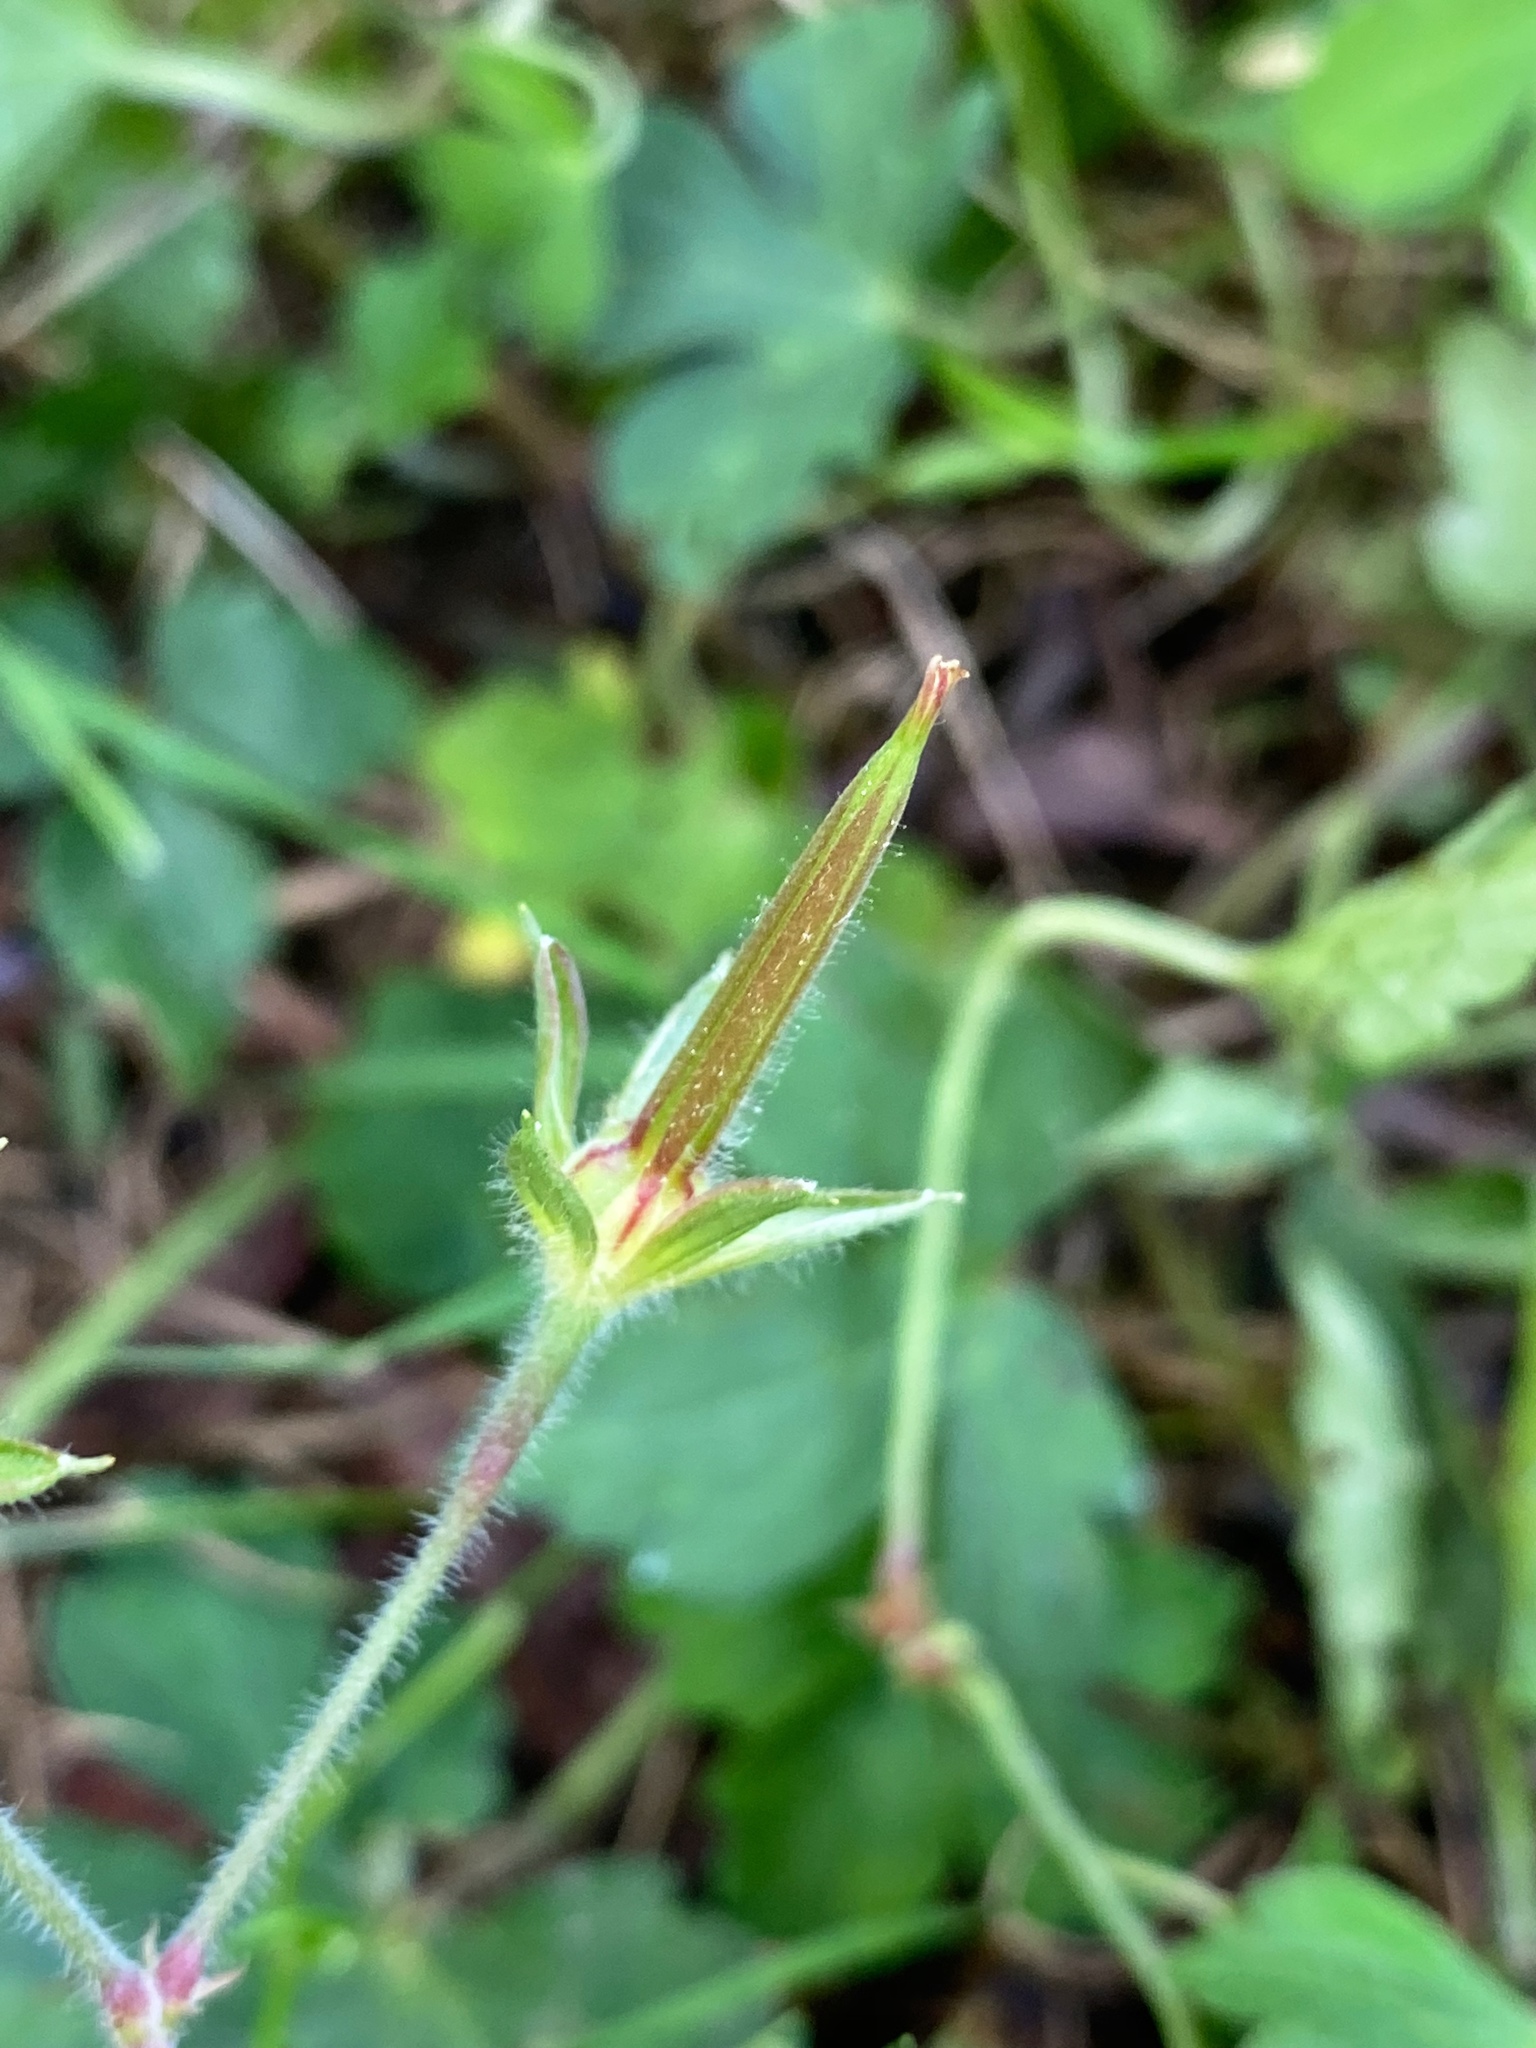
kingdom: Plantae
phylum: Tracheophyta
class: Magnoliopsida
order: Geraniales
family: Geraniaceae
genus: Geranium
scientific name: Geranium thunbergii
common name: Dewdrop crane's-bill
